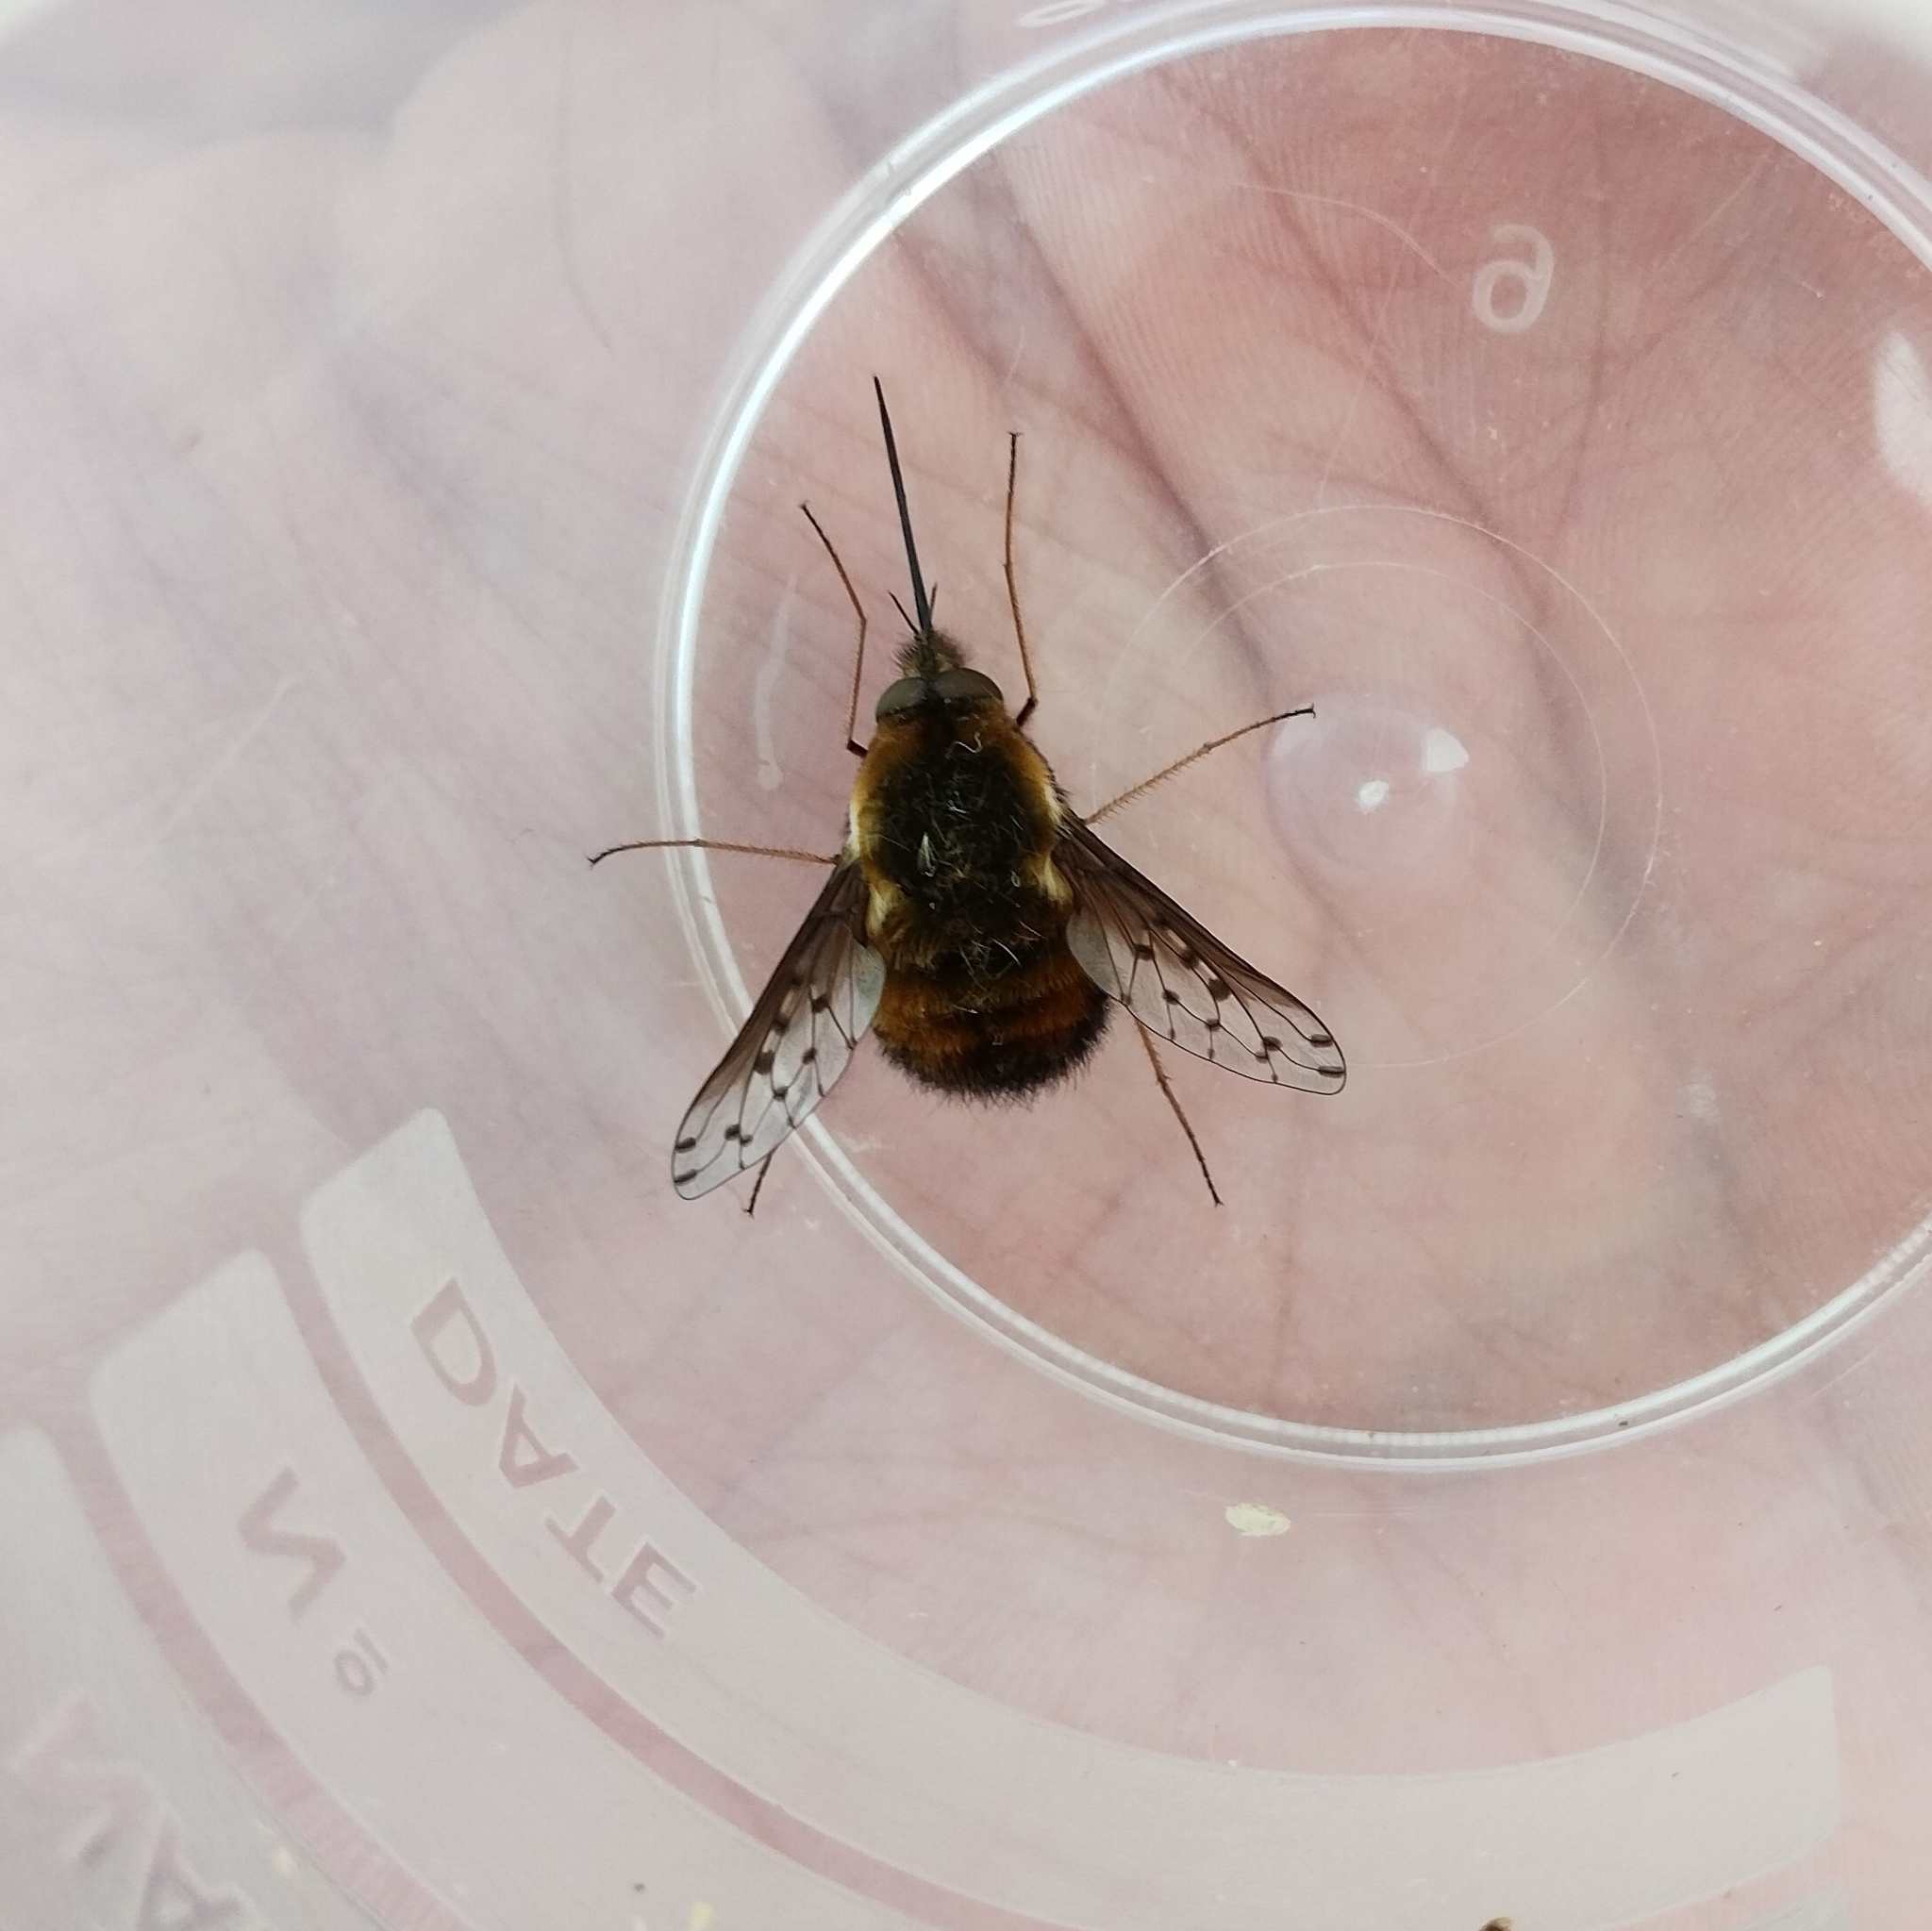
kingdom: Animalia
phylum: Arthropoda
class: Insecta
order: Diptera
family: Bombyliidae
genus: Bombylius
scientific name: Bombylius discolor
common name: Dotted bee-fly
